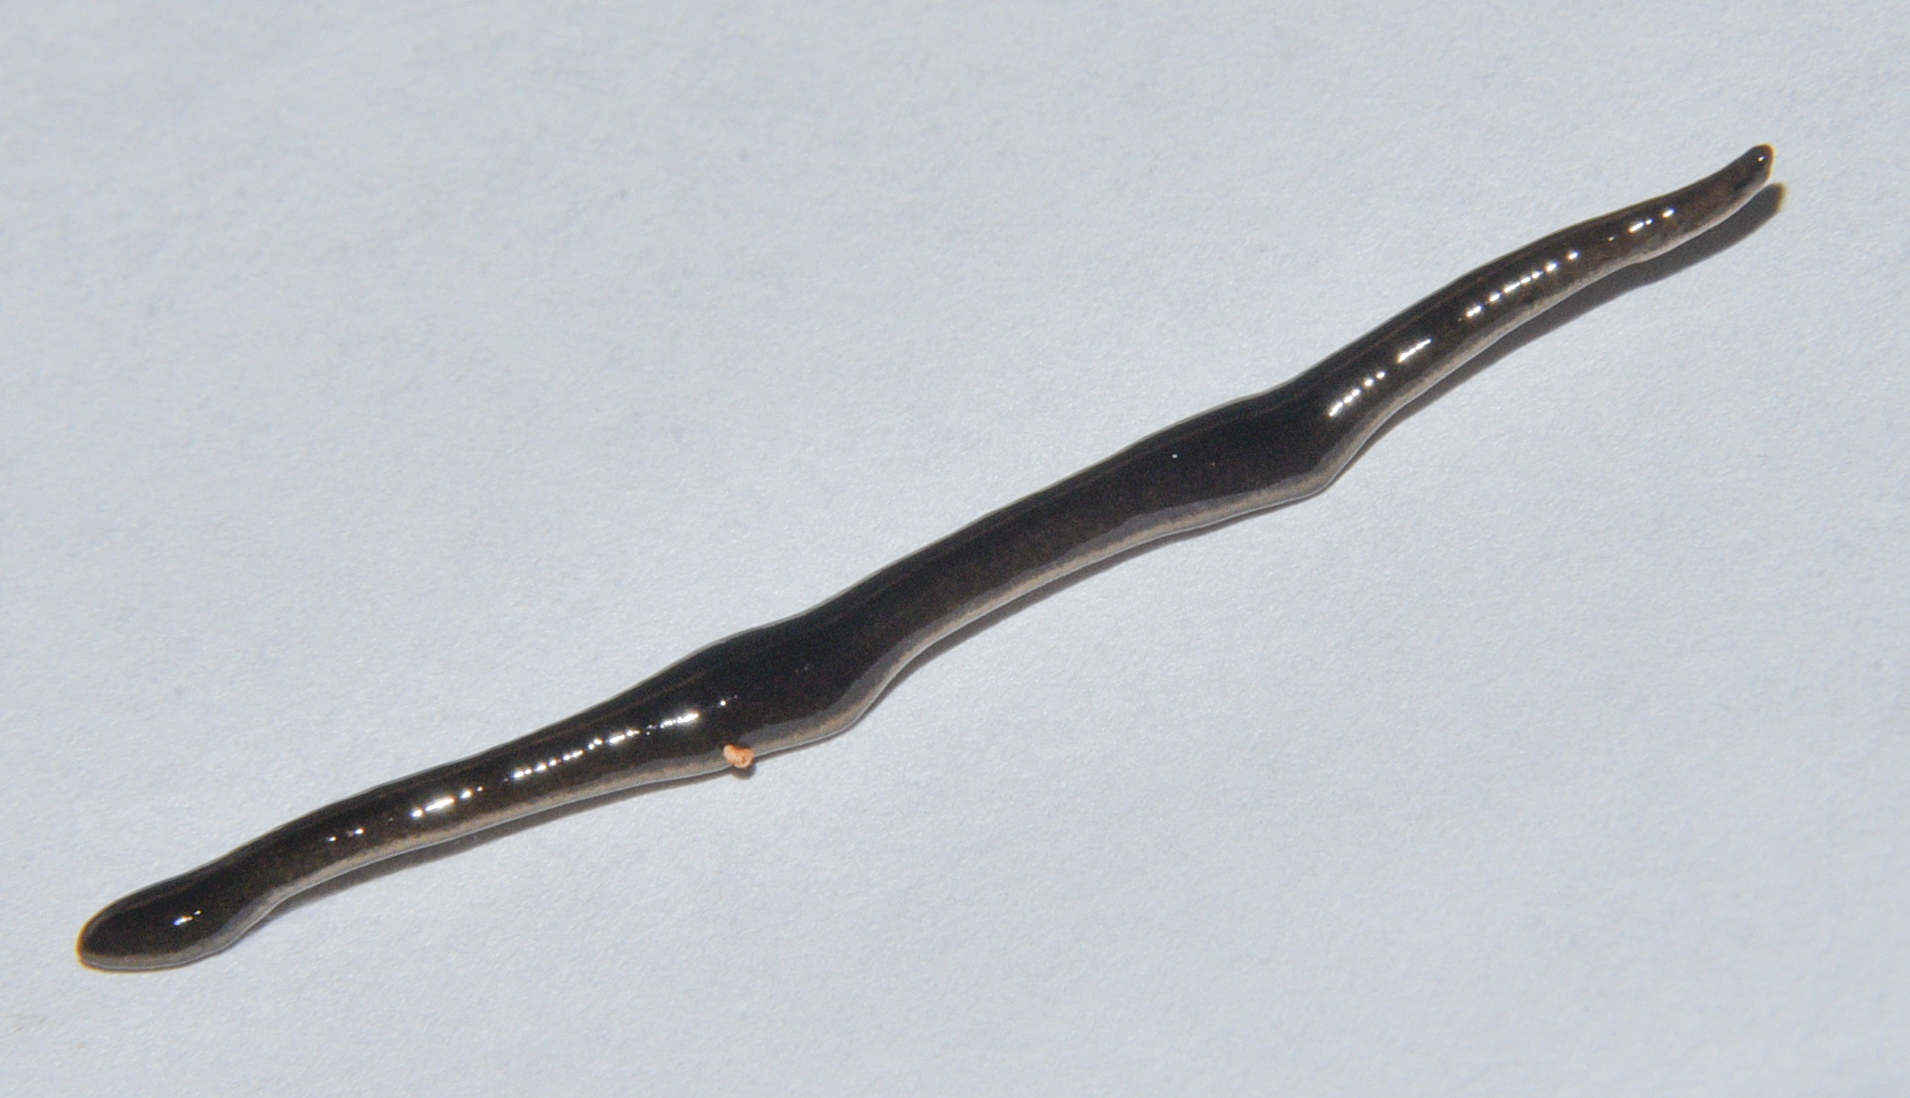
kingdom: Animalia
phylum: Platyhelminthes
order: Tricladida
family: Geoplanidae
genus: Platydemus
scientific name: Platydemus manokwari
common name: New guinea flatworm
